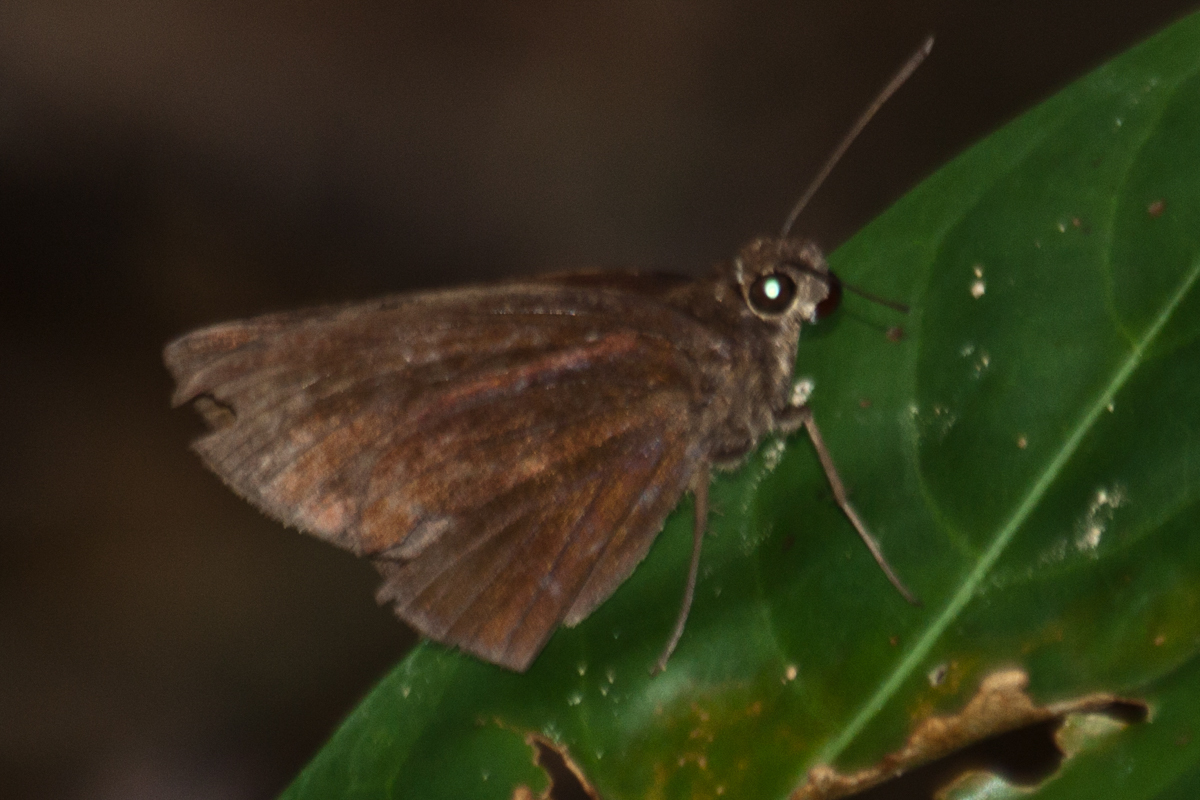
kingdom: Animalia
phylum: Arthropoda
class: Insecta
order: Lepidoptera
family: Hesperiidae
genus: Ancistroides
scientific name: Ancistroides nigrita
